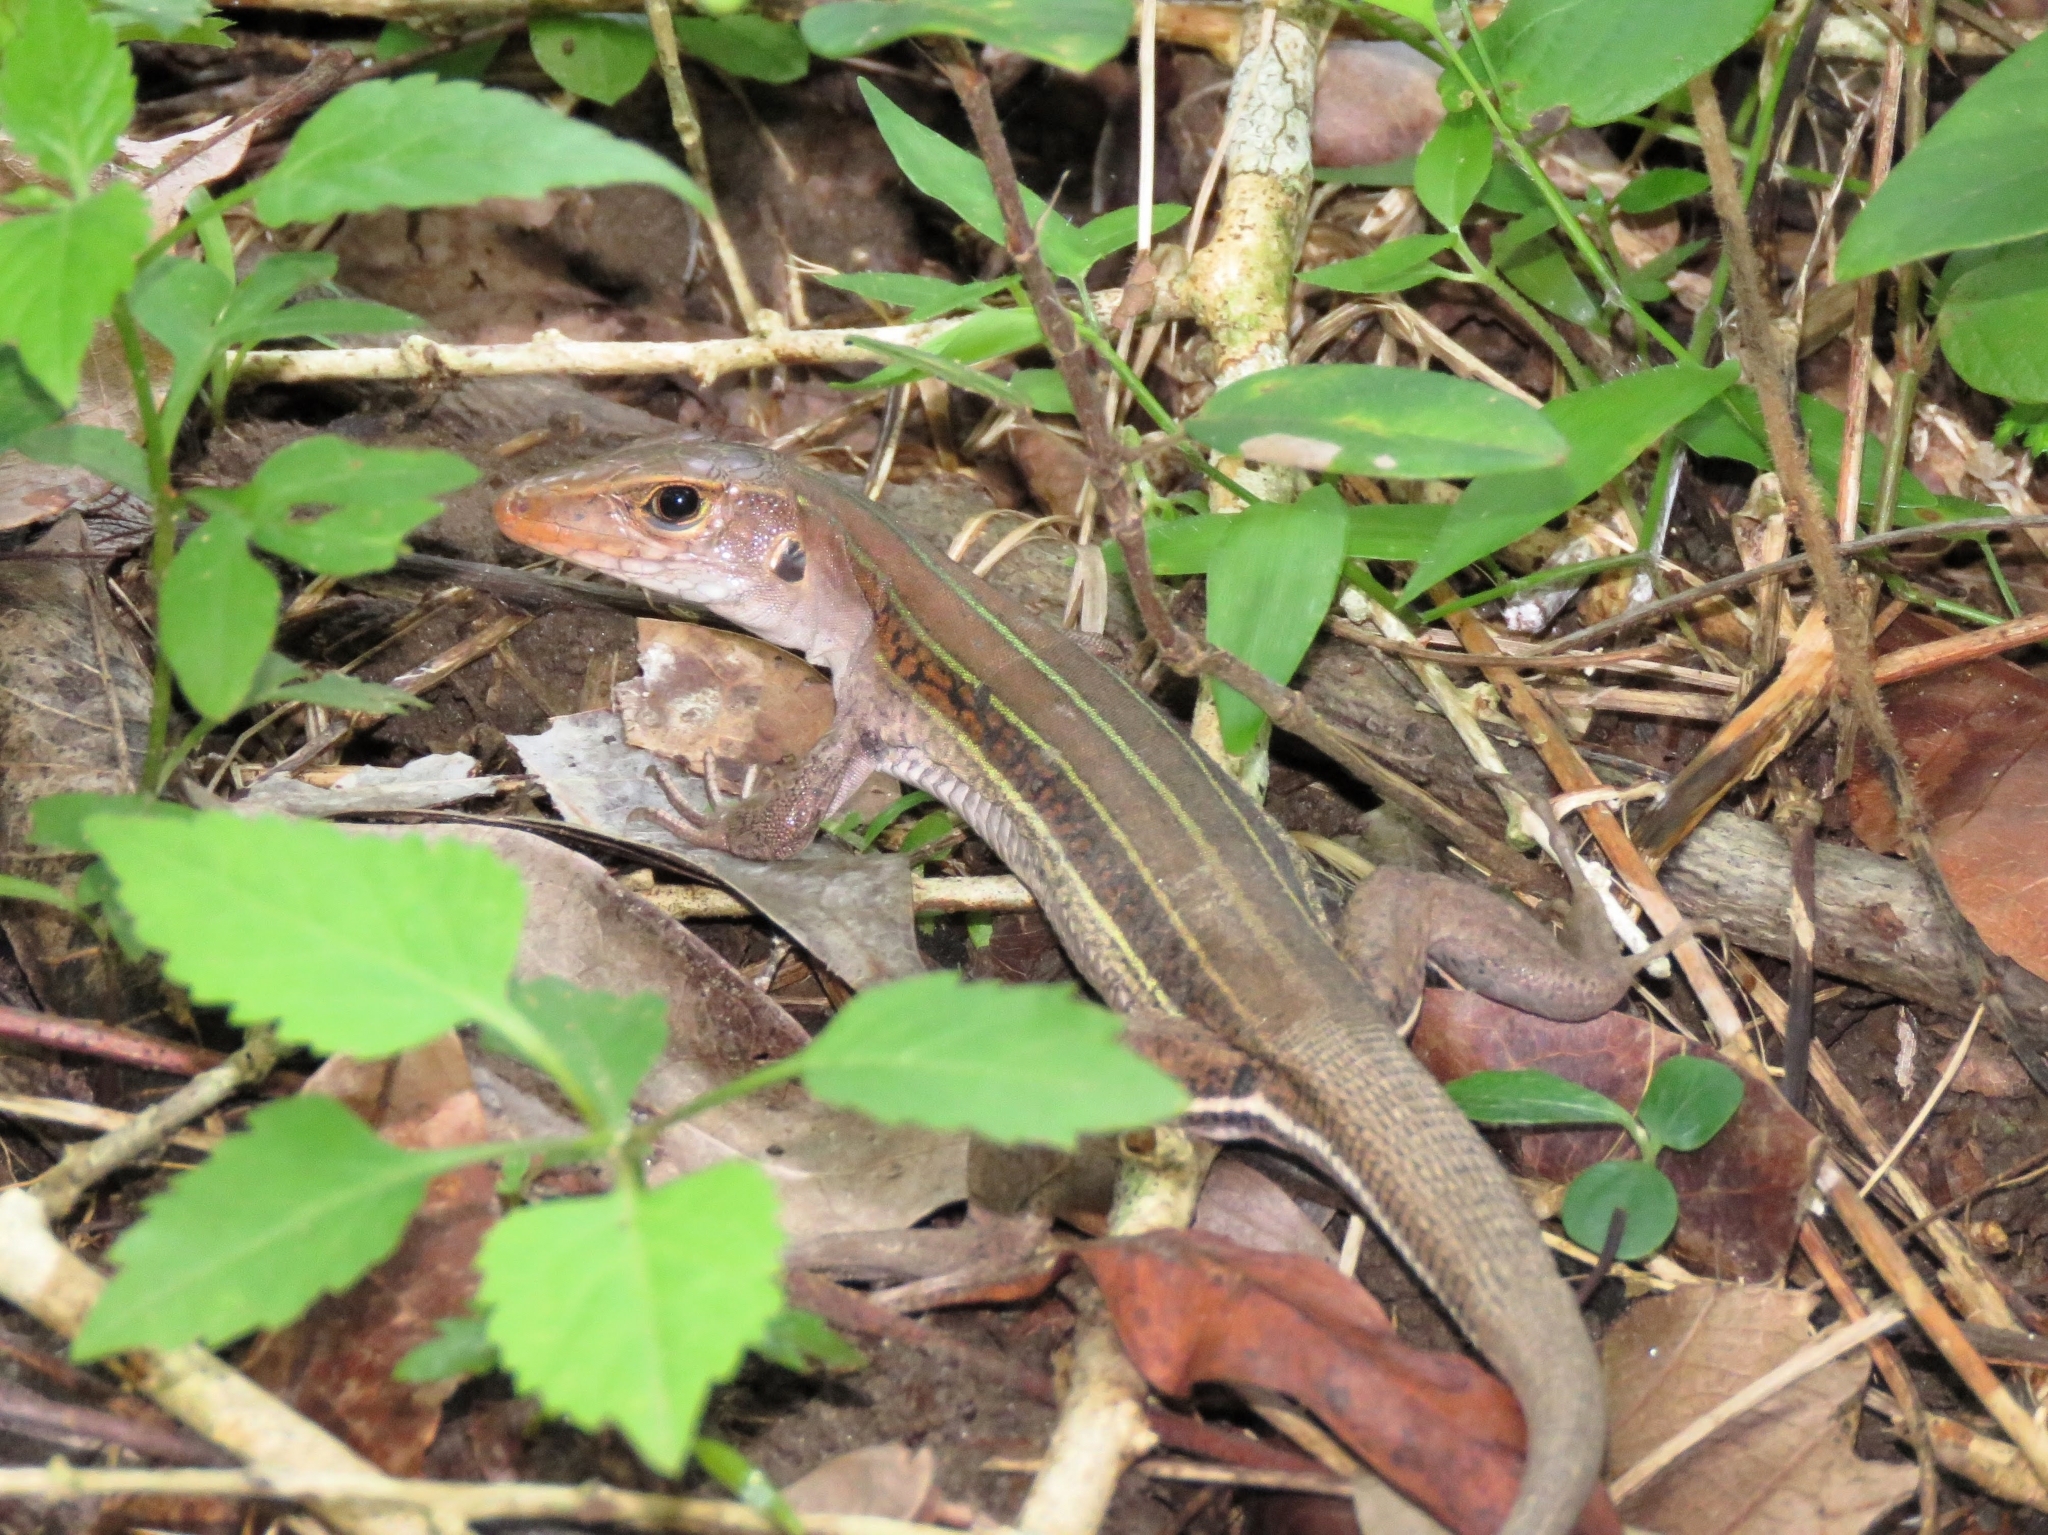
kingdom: Animalia
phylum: Chordata
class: Squamata
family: Teiidae
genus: Pholidoscelis
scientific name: Pholidoscelis auberi
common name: Auber's ameiva
